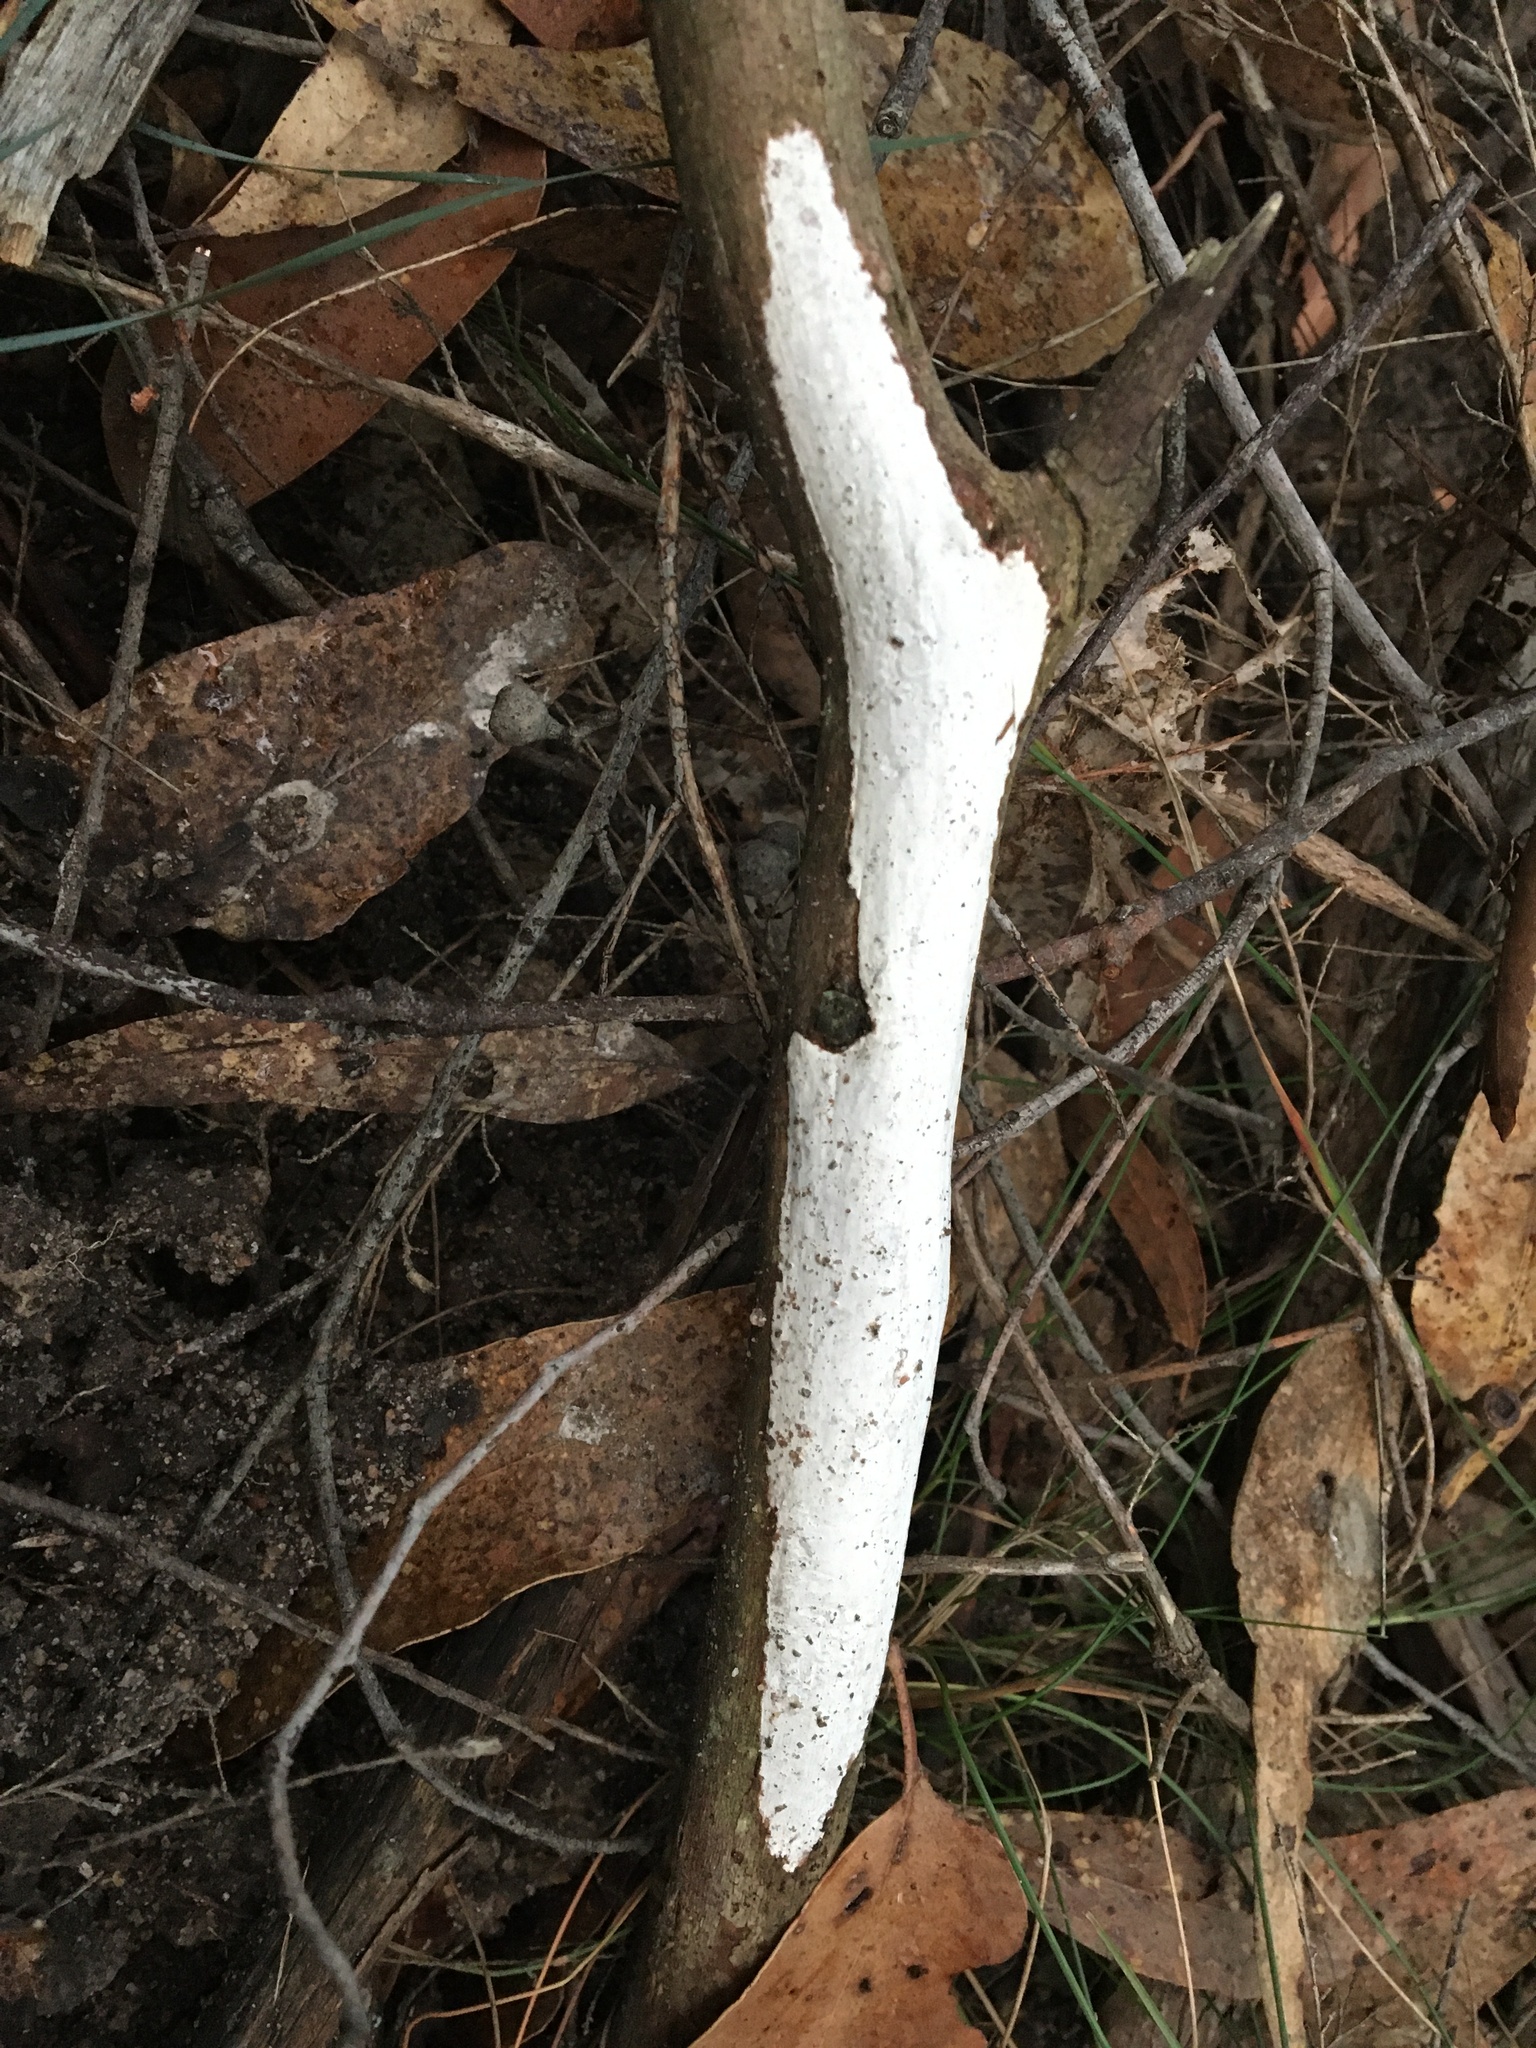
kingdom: Fungi
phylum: Basidiomycota
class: Agaricomycetes
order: Russulales
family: Stereaceae
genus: Aleurodiscus
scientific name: Aleurodiscus sparsus
